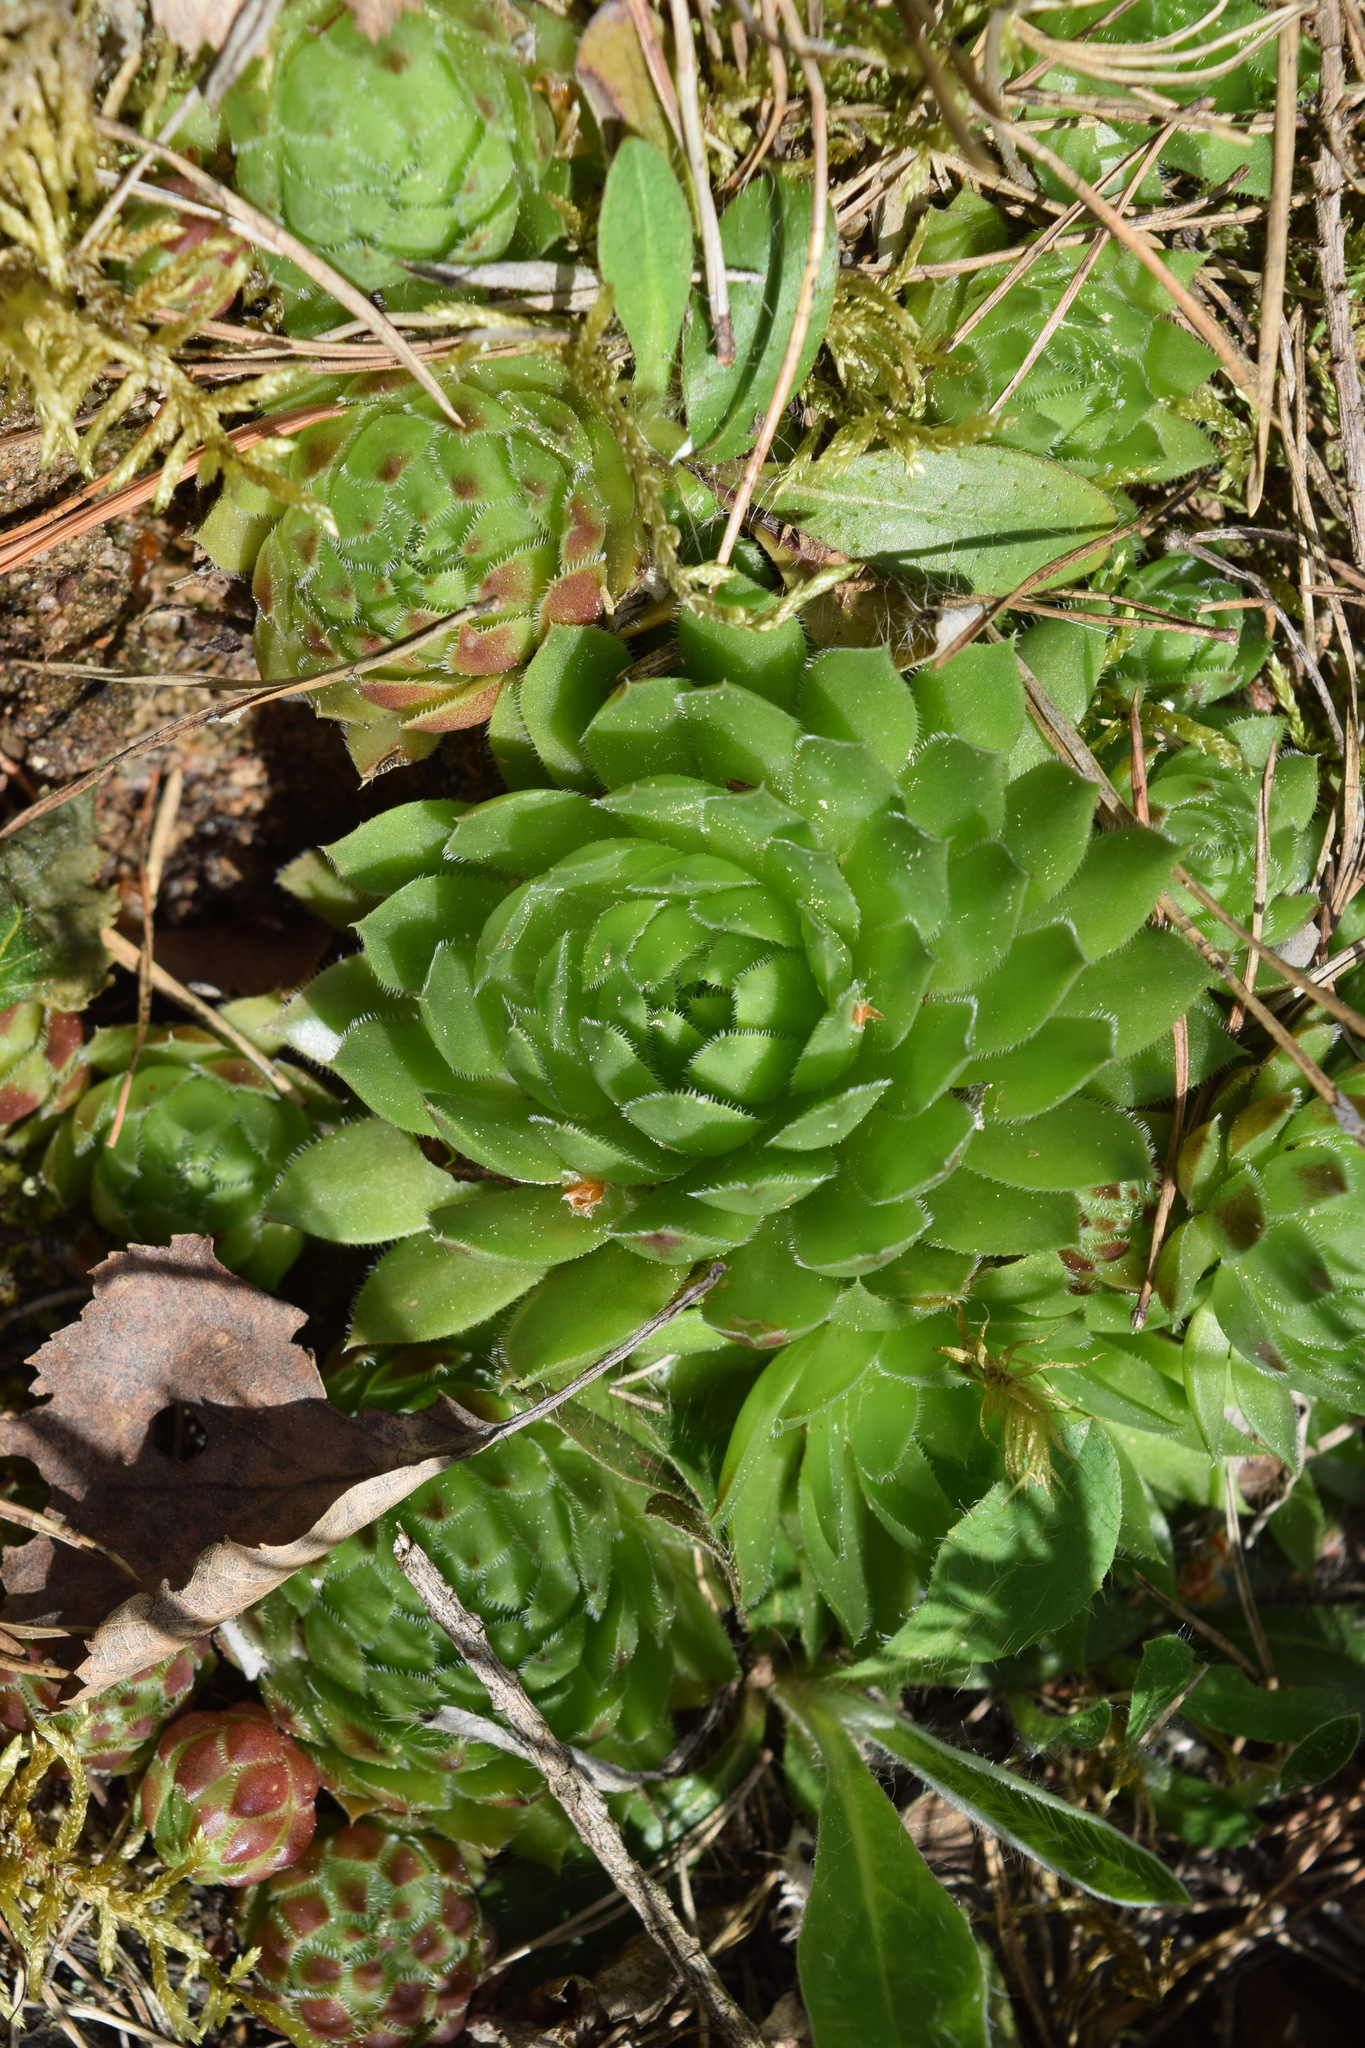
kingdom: Plantae
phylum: Tracheophyta
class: Magnoliopsida
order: Saxifragales
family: Crassulaceae
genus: Sempervivum
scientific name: Sempervivum globiferum
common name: Rolling hen-and-chicks
